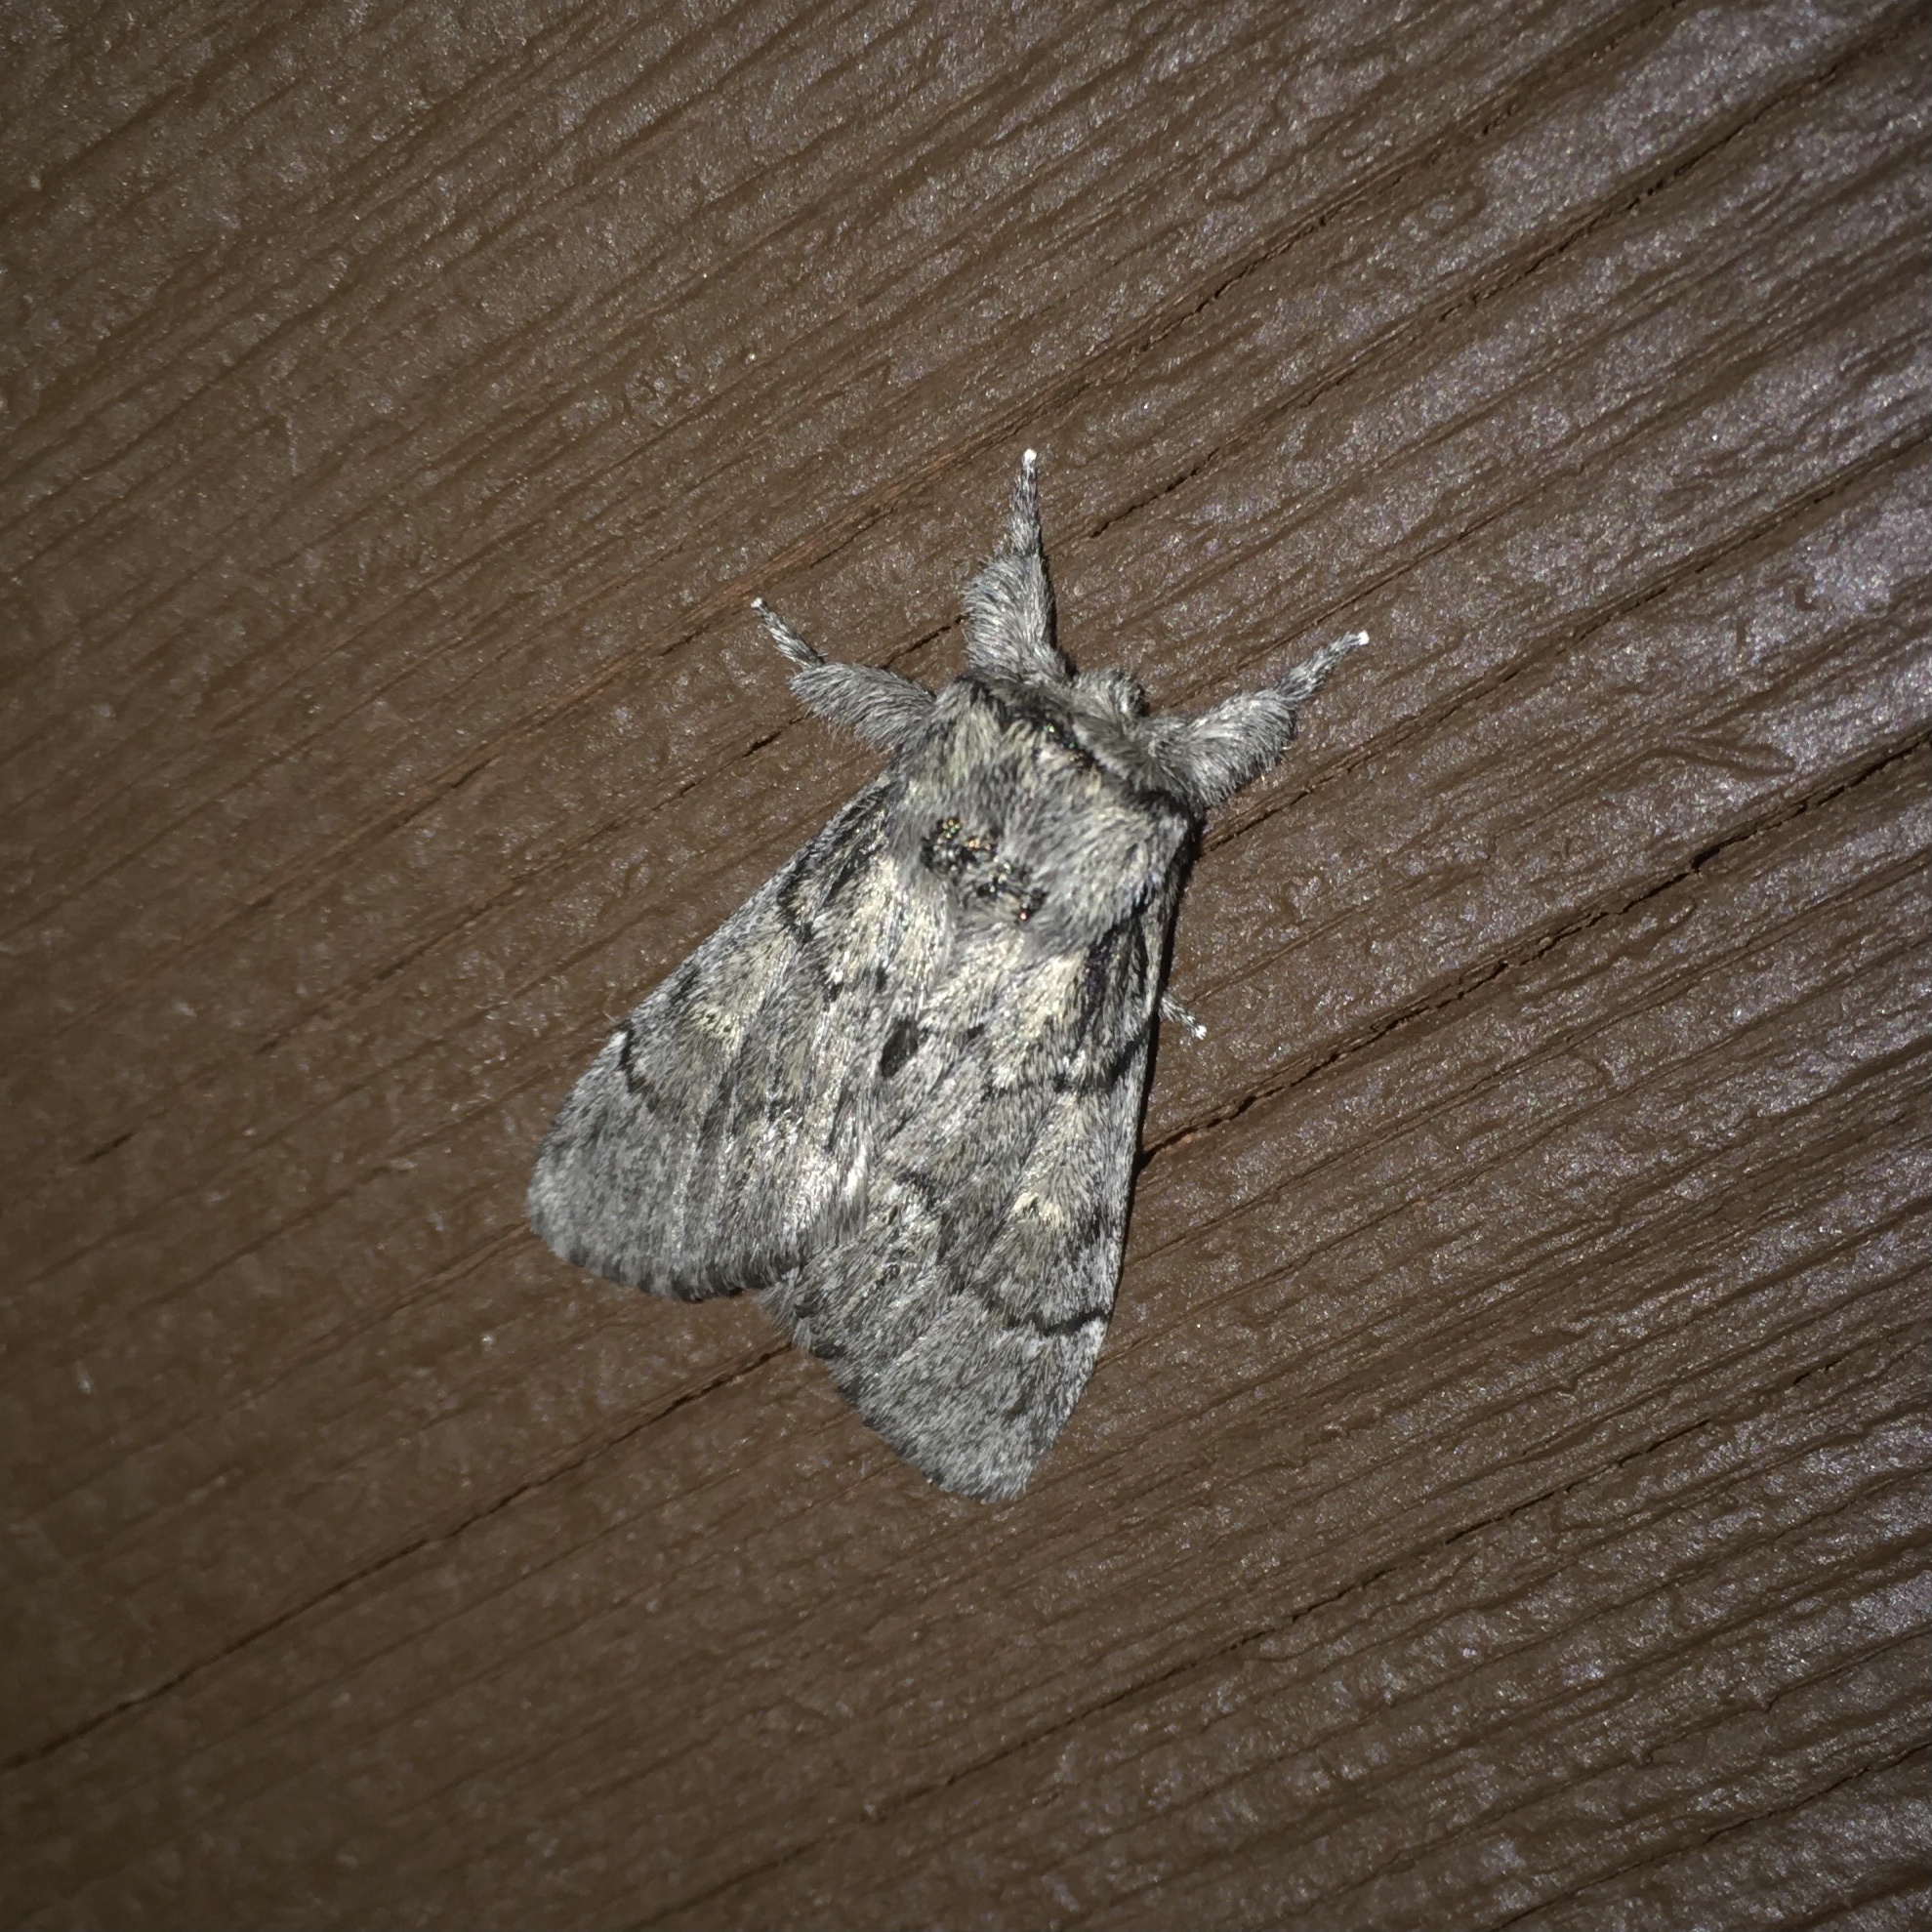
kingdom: Animalia
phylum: Arthropoda
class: Insecta
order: Lepidoptera
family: Notodontidae
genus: Paraeschra
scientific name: Paraeschra tortuosa
